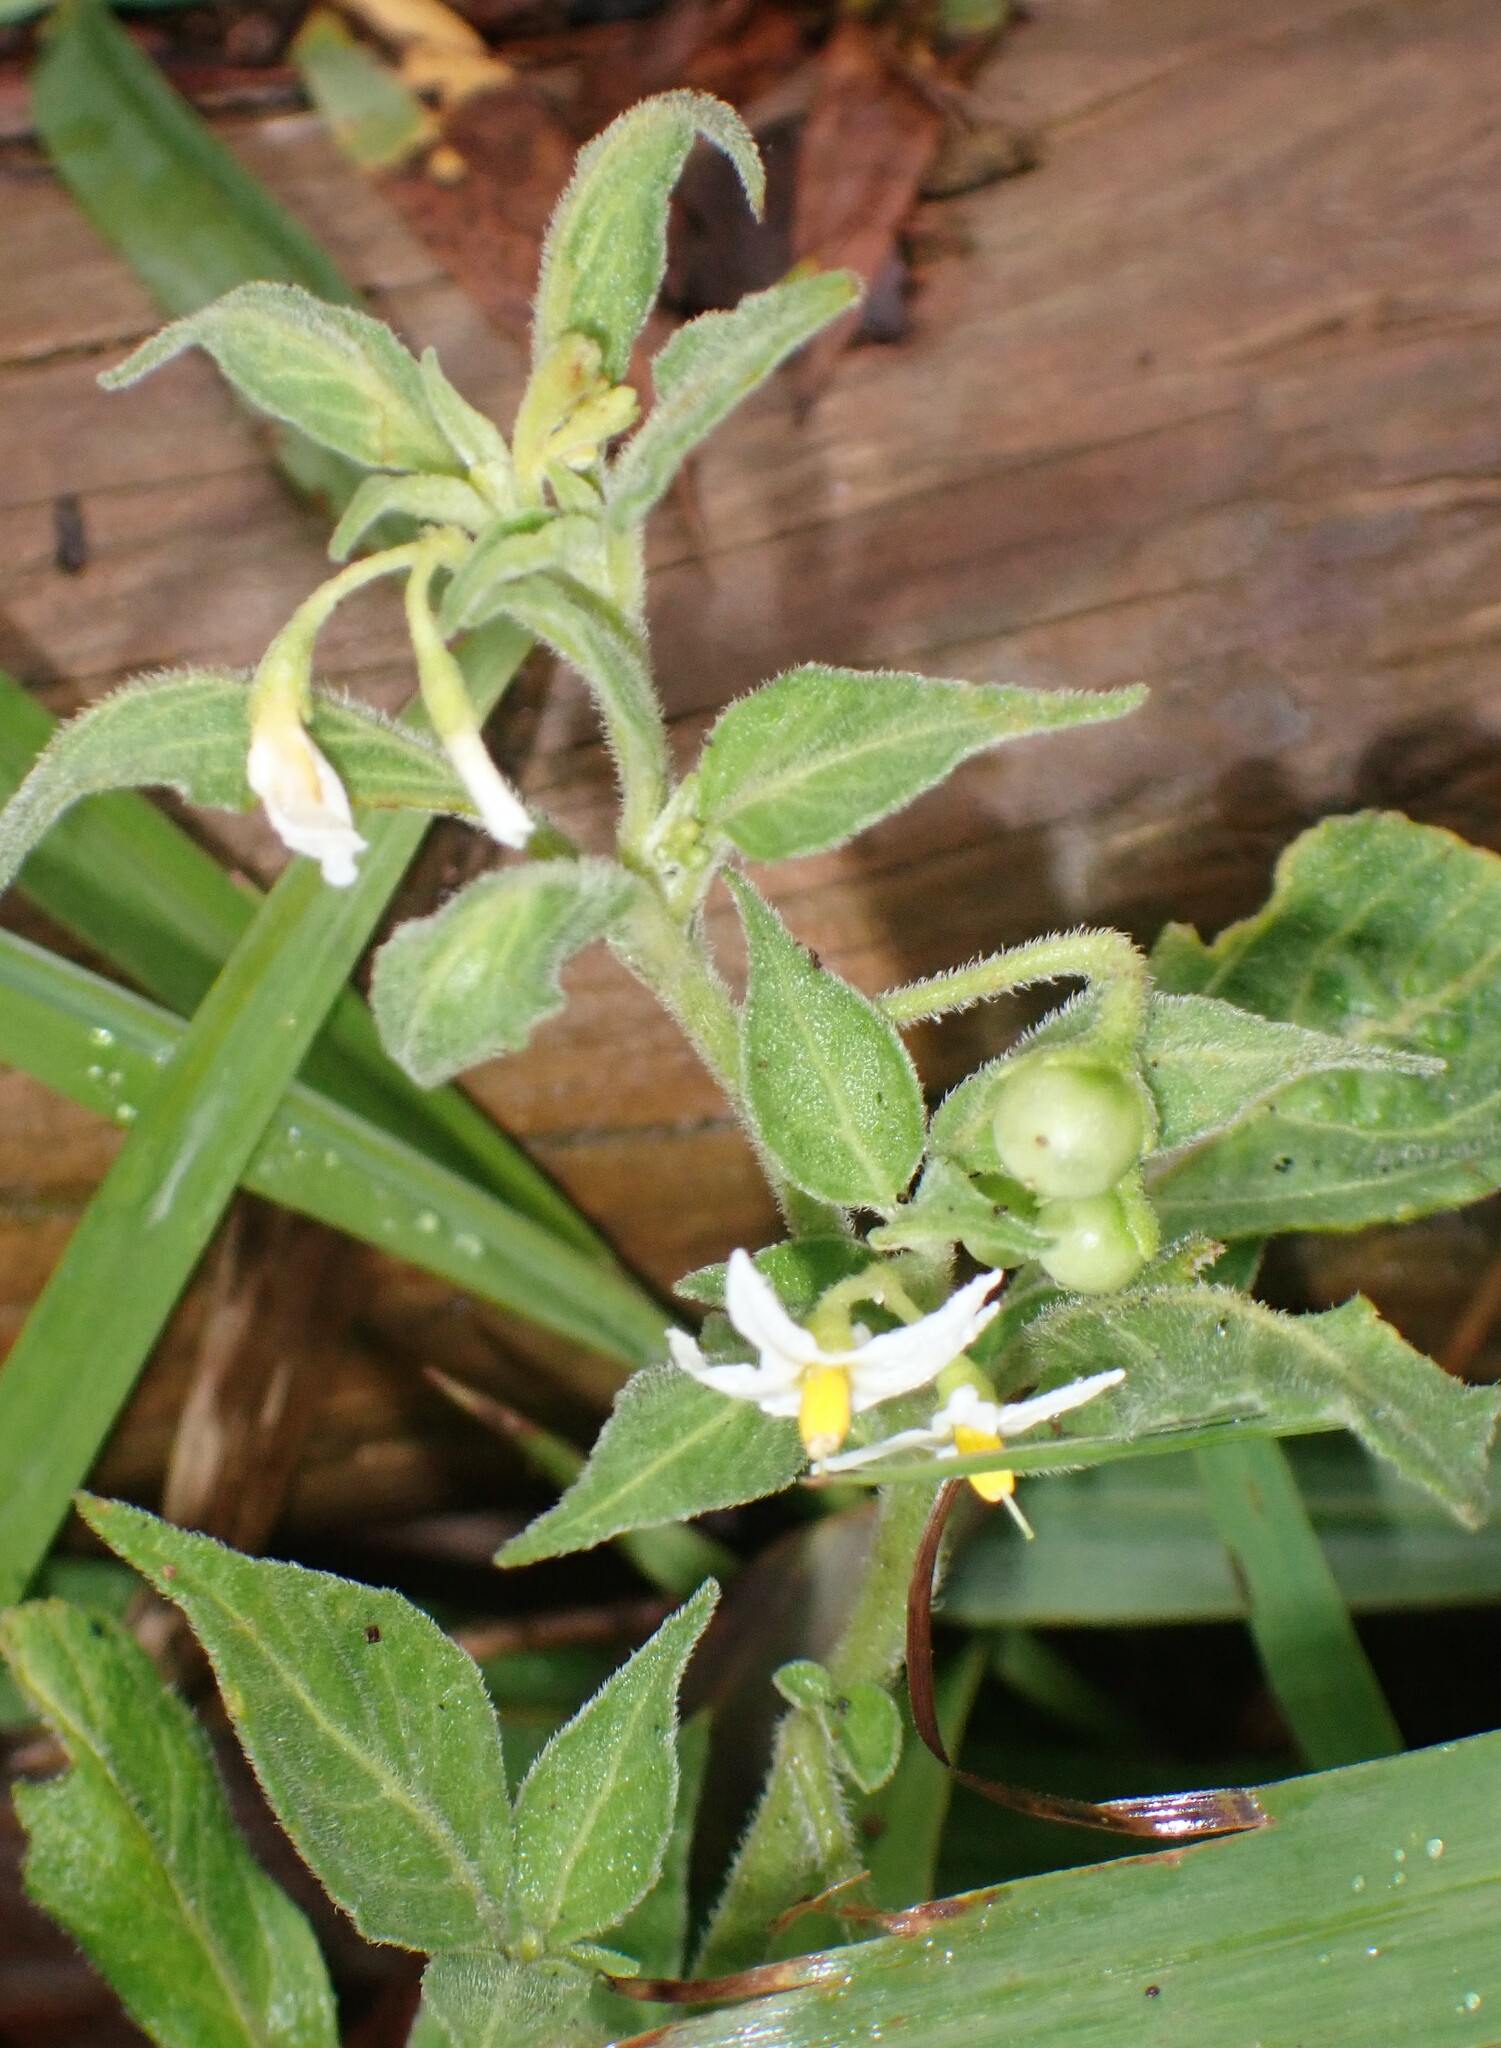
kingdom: Plantae
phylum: Tracheophyta
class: Magnoliopsida
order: Solanales
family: Solanaceae
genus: Solanum
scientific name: Solanum chenopodioides
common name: Tall nightshade
